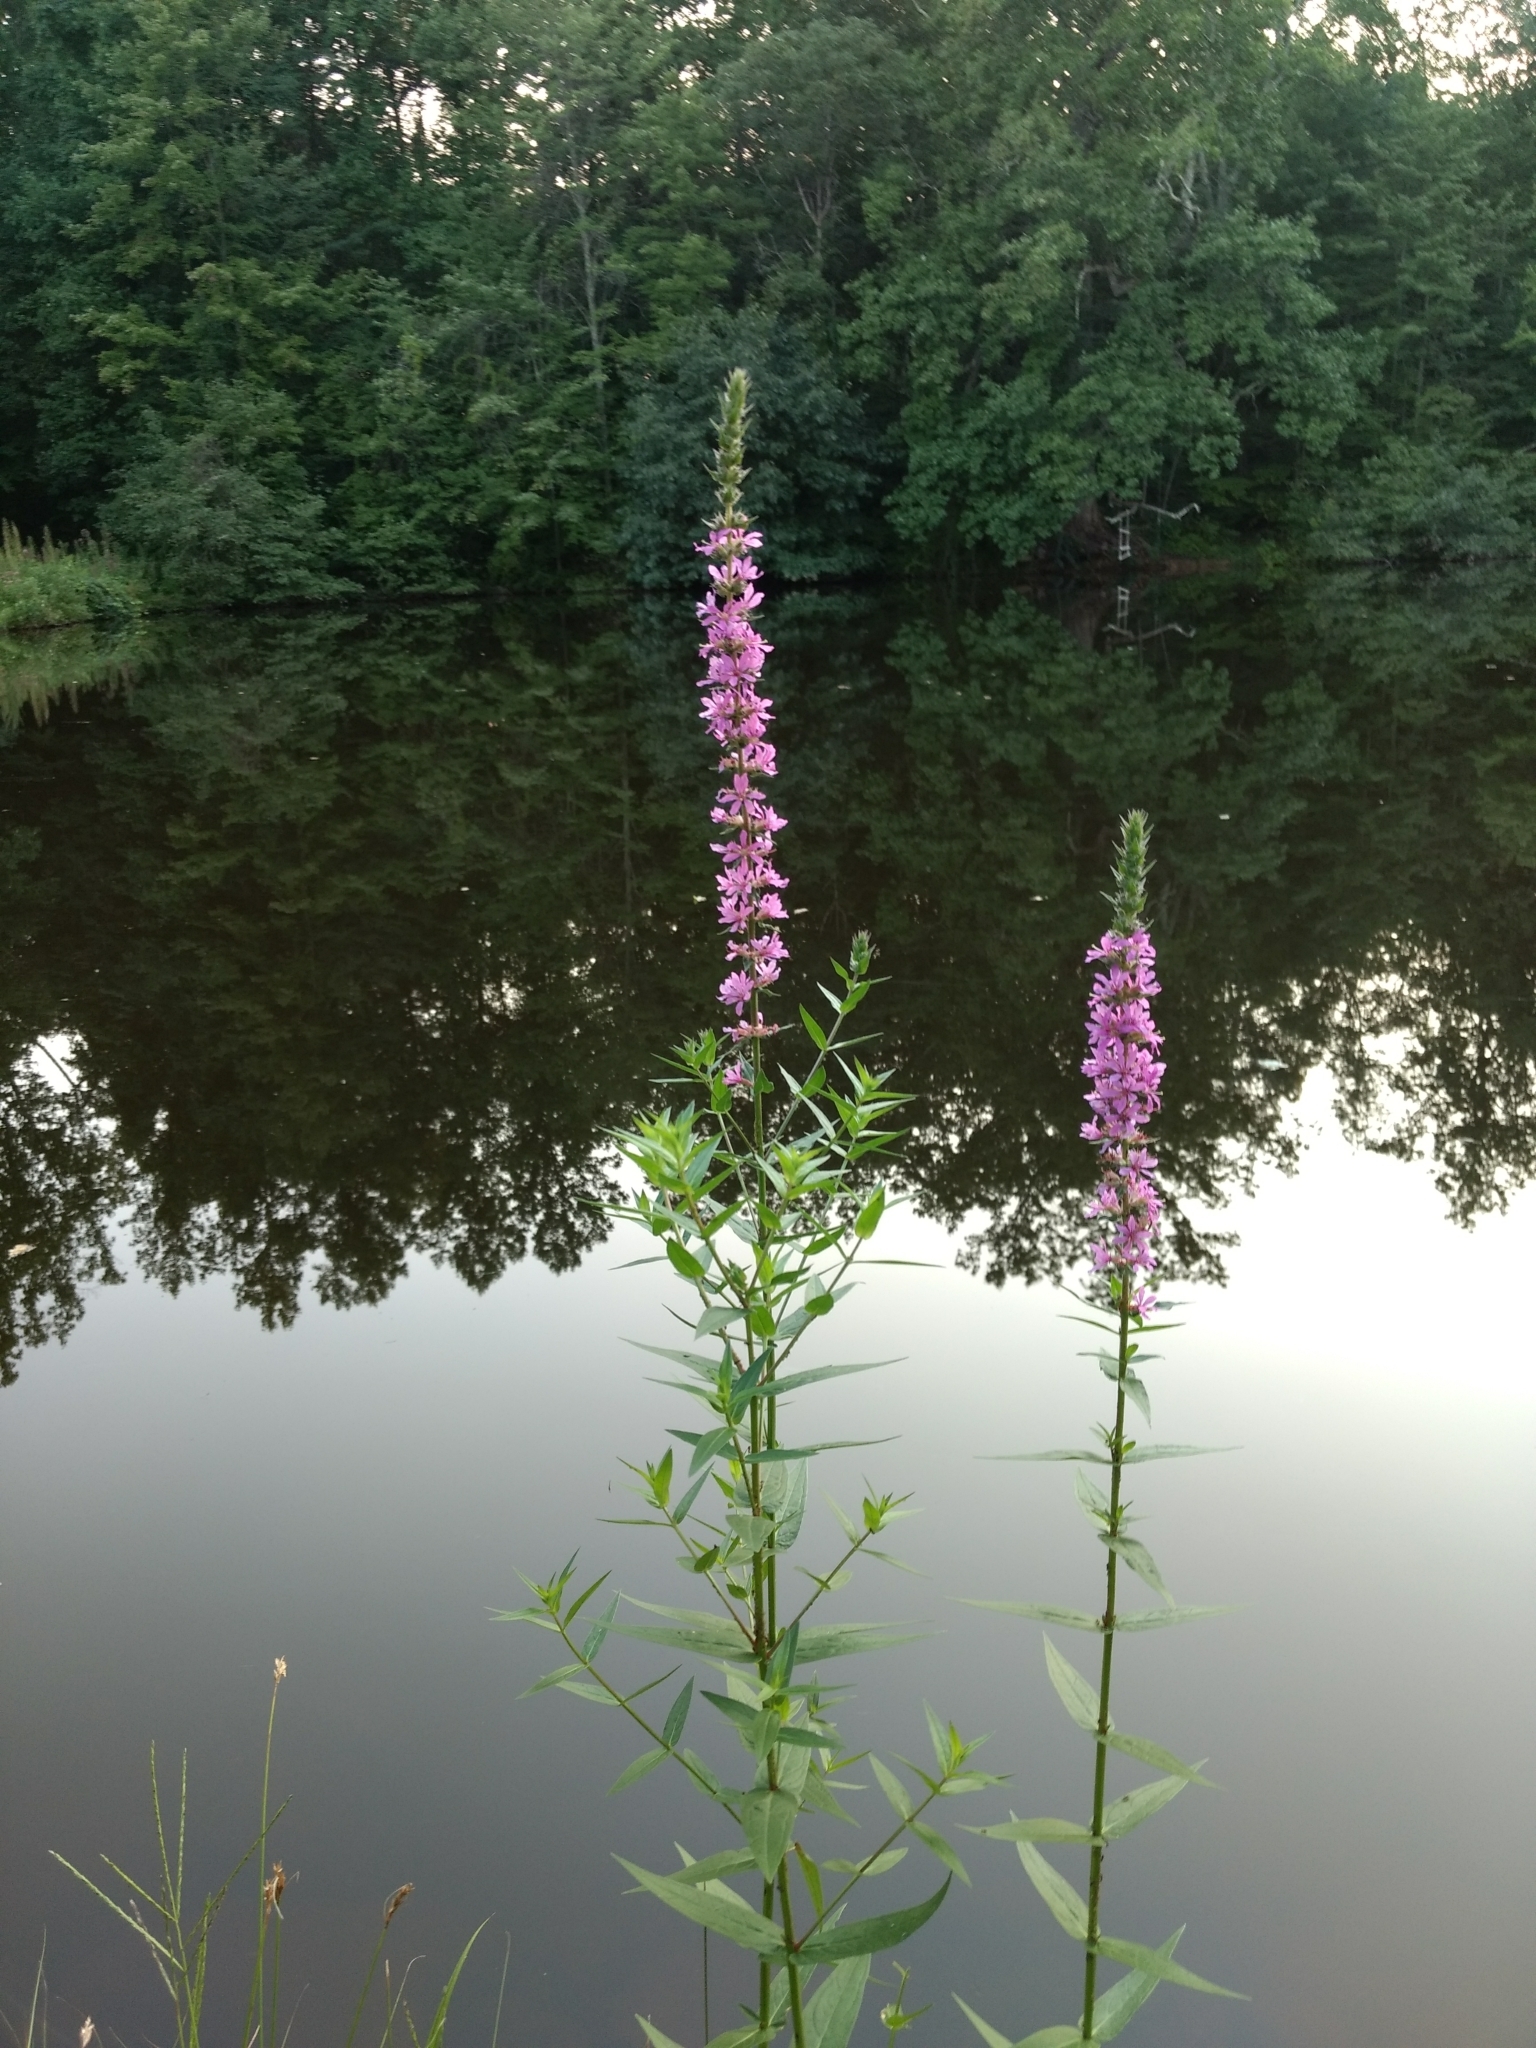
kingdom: Plantae
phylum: Tracheophyta
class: Magnoliopsida
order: Myrtales
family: Lythraceae
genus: Lythrum
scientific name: Lythrum salicaria
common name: Purple loosestrife
